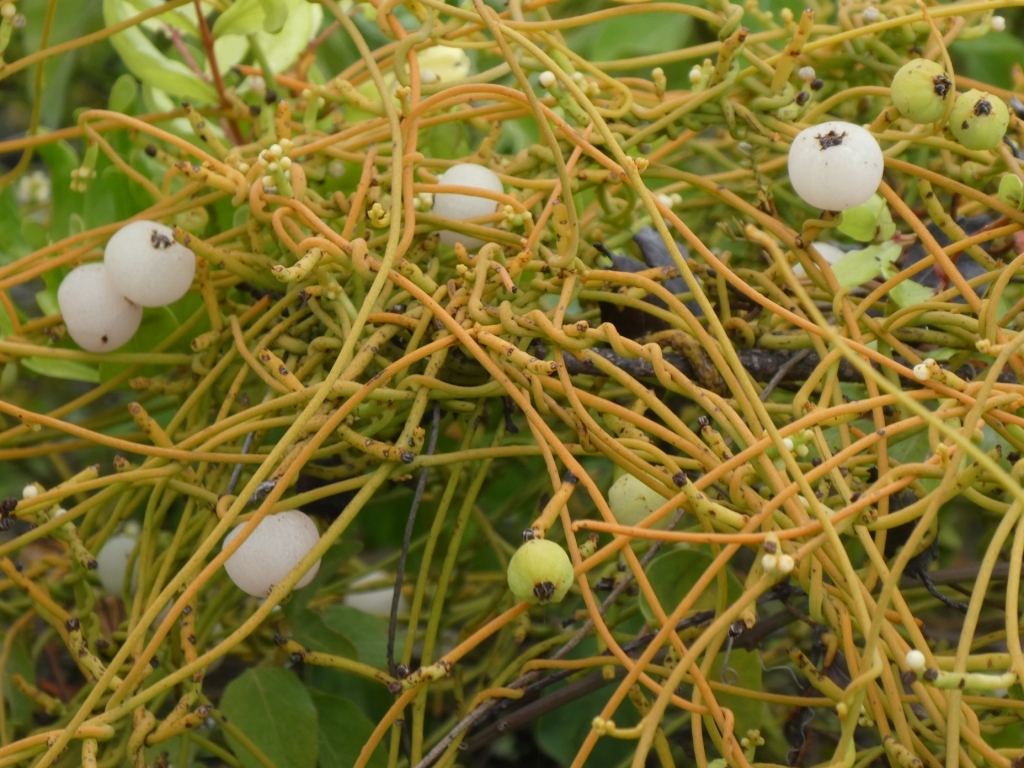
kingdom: Plantae
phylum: Tracheophyta
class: Magnoliopsida
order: Laurales
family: Lauraceae
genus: Cassytha
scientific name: Cassytha filiformis
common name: Dodder-laurel
